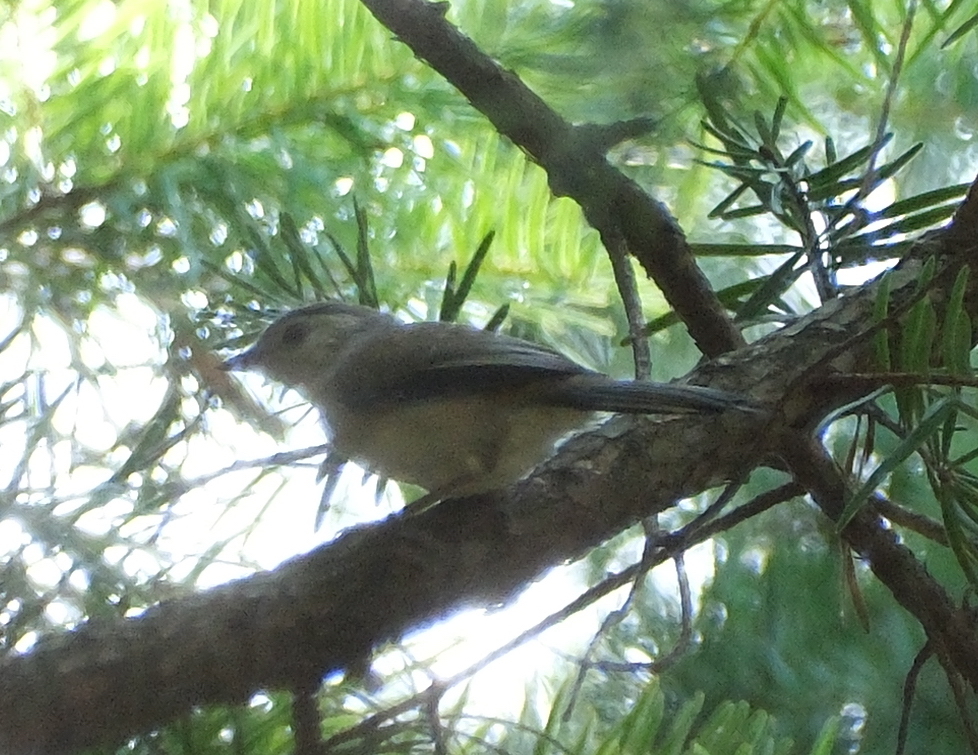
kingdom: Animalia
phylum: Chordata
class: Aves
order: Passeriformes
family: Leiothrichidae
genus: Minla
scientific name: Minla cyanouroptera
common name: Blue-winged minla
